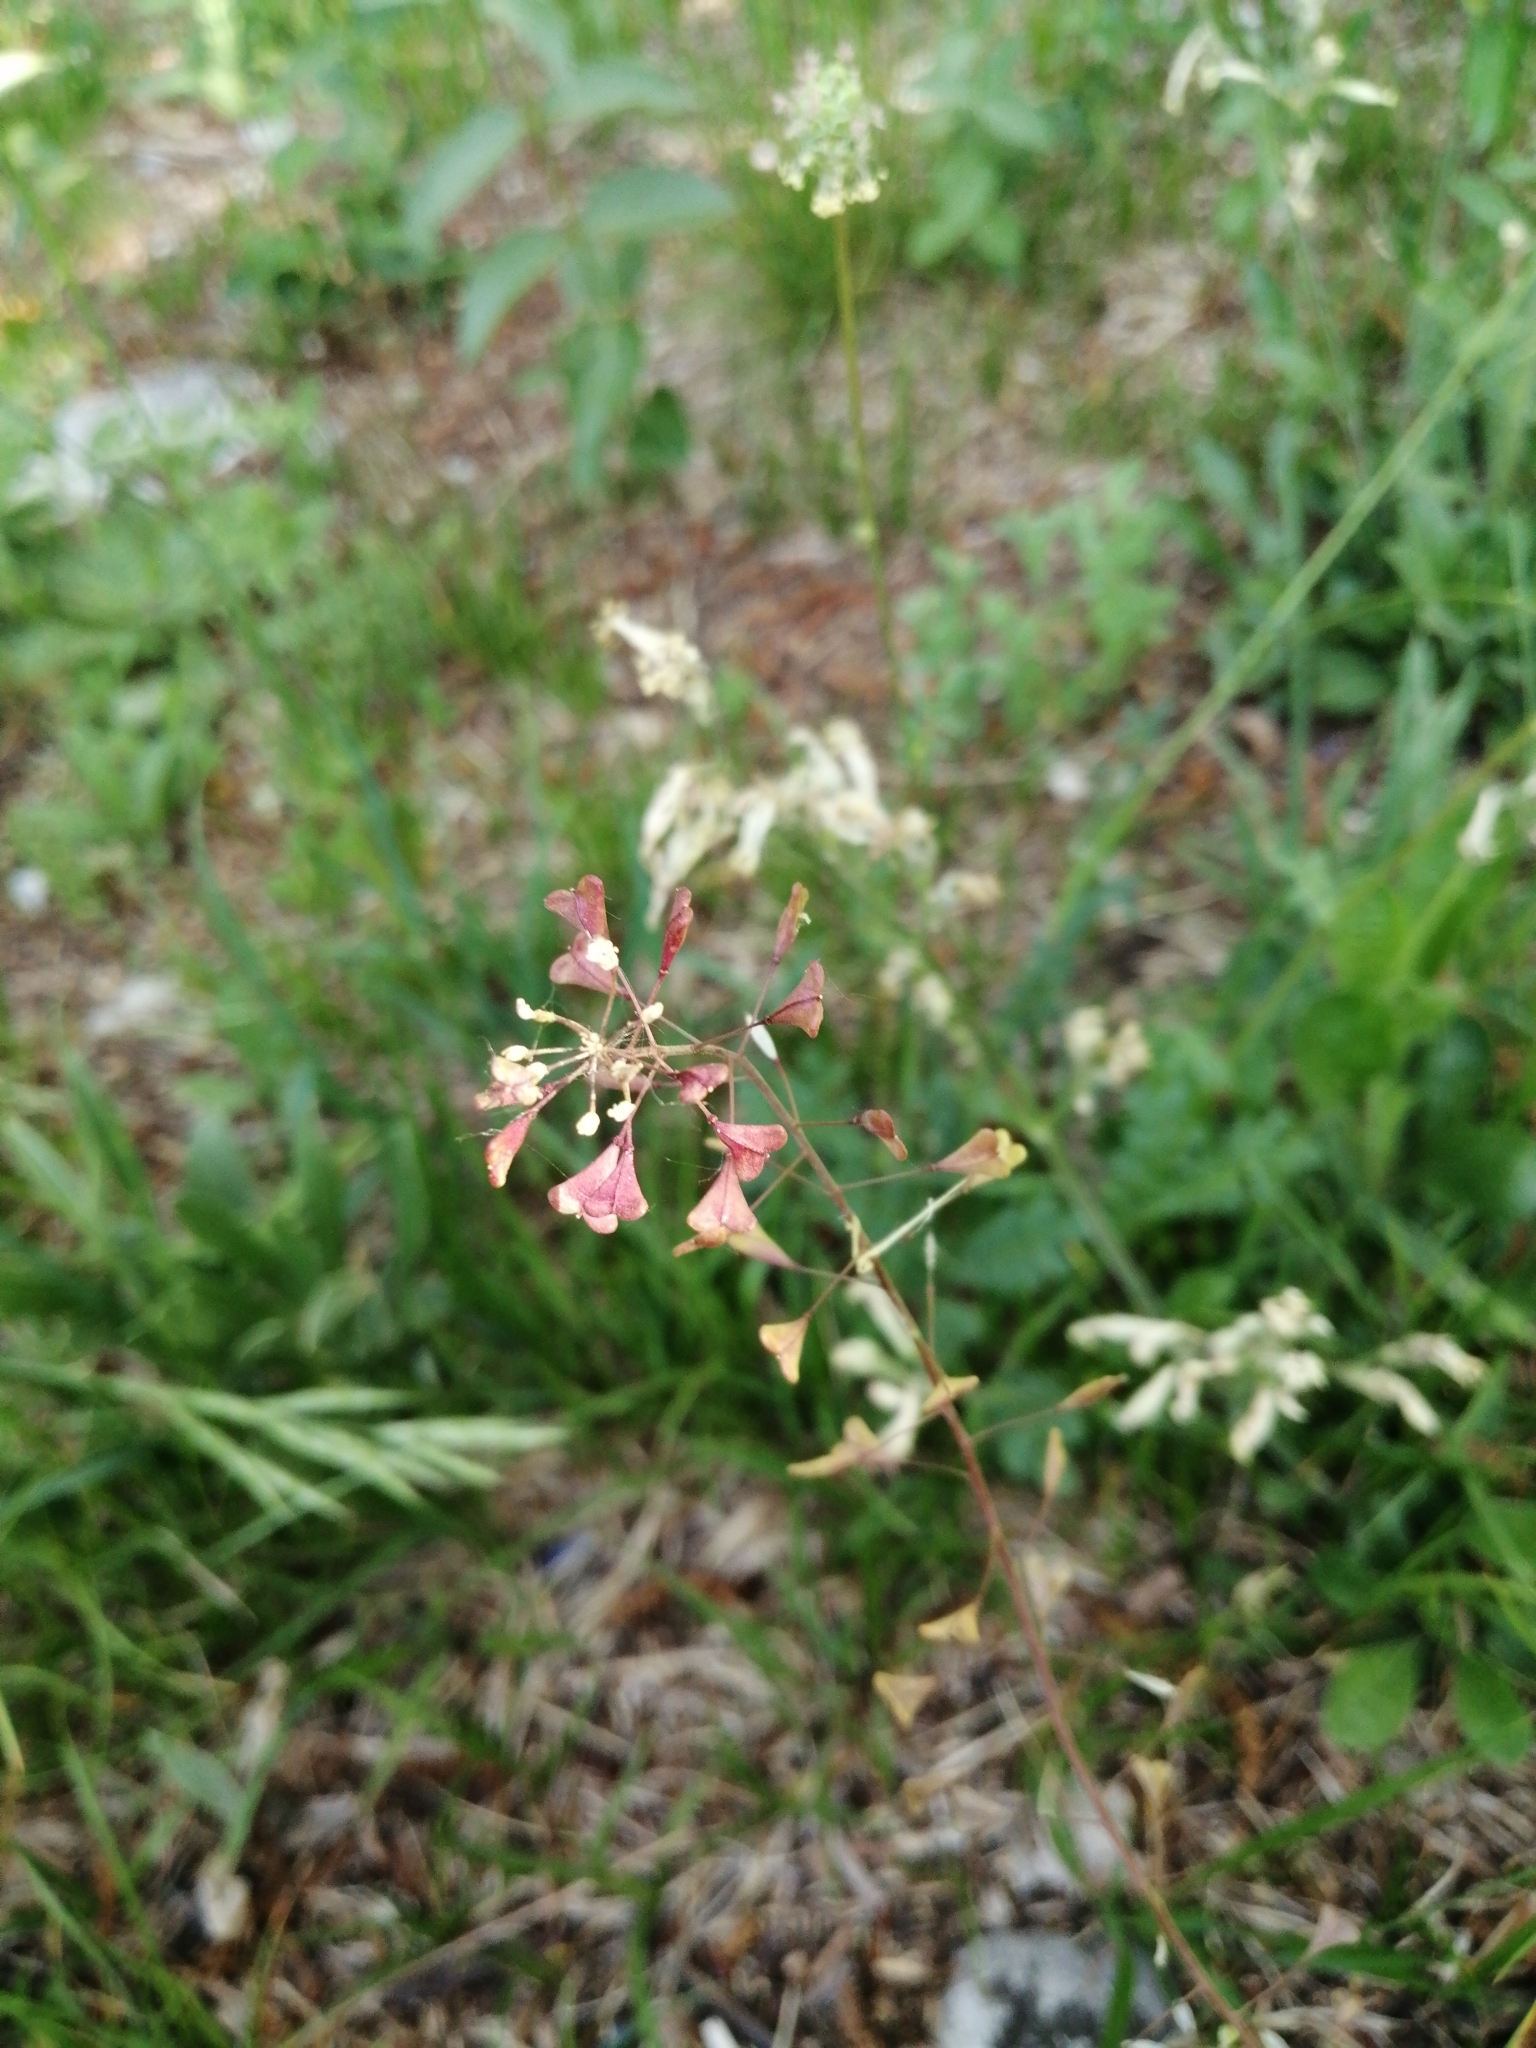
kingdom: Plantae
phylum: Tracheophyta
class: Magnoliopsida
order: Brassicales
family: Brassicaceae
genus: Capsella
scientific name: Capsella bursa-pastoris
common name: Shepherd's purse
